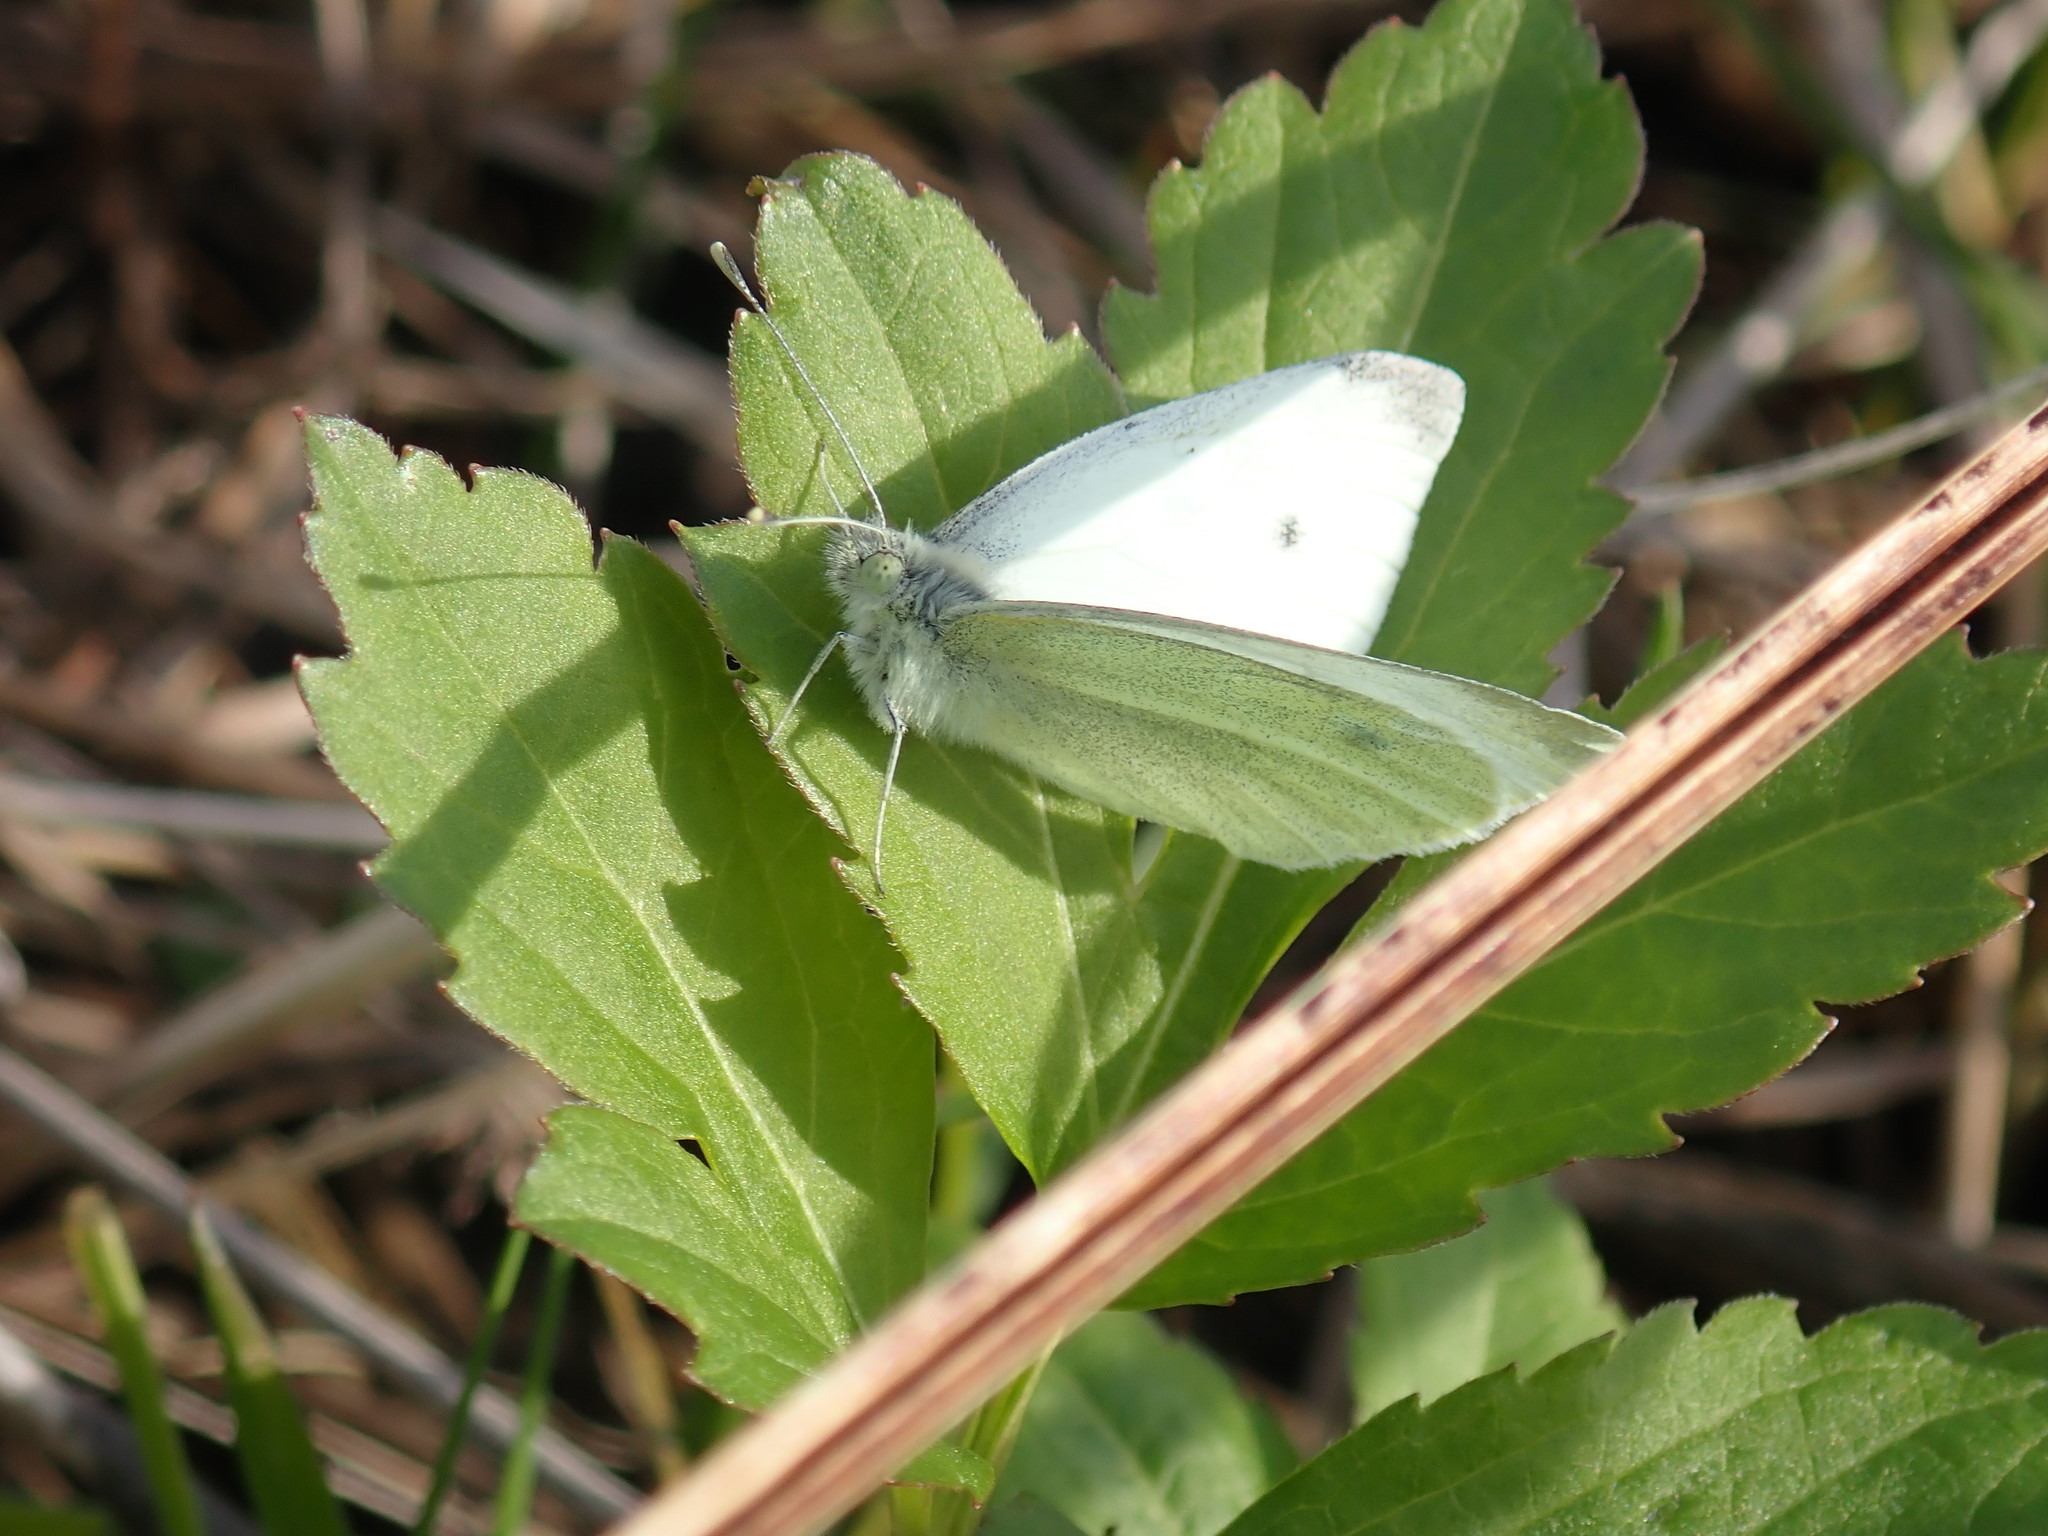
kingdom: Animalia
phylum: Arthropoda
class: Insecta
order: Lepidoptera
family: Pieridae
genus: Pieris
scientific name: Pieris rapae
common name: Small white
